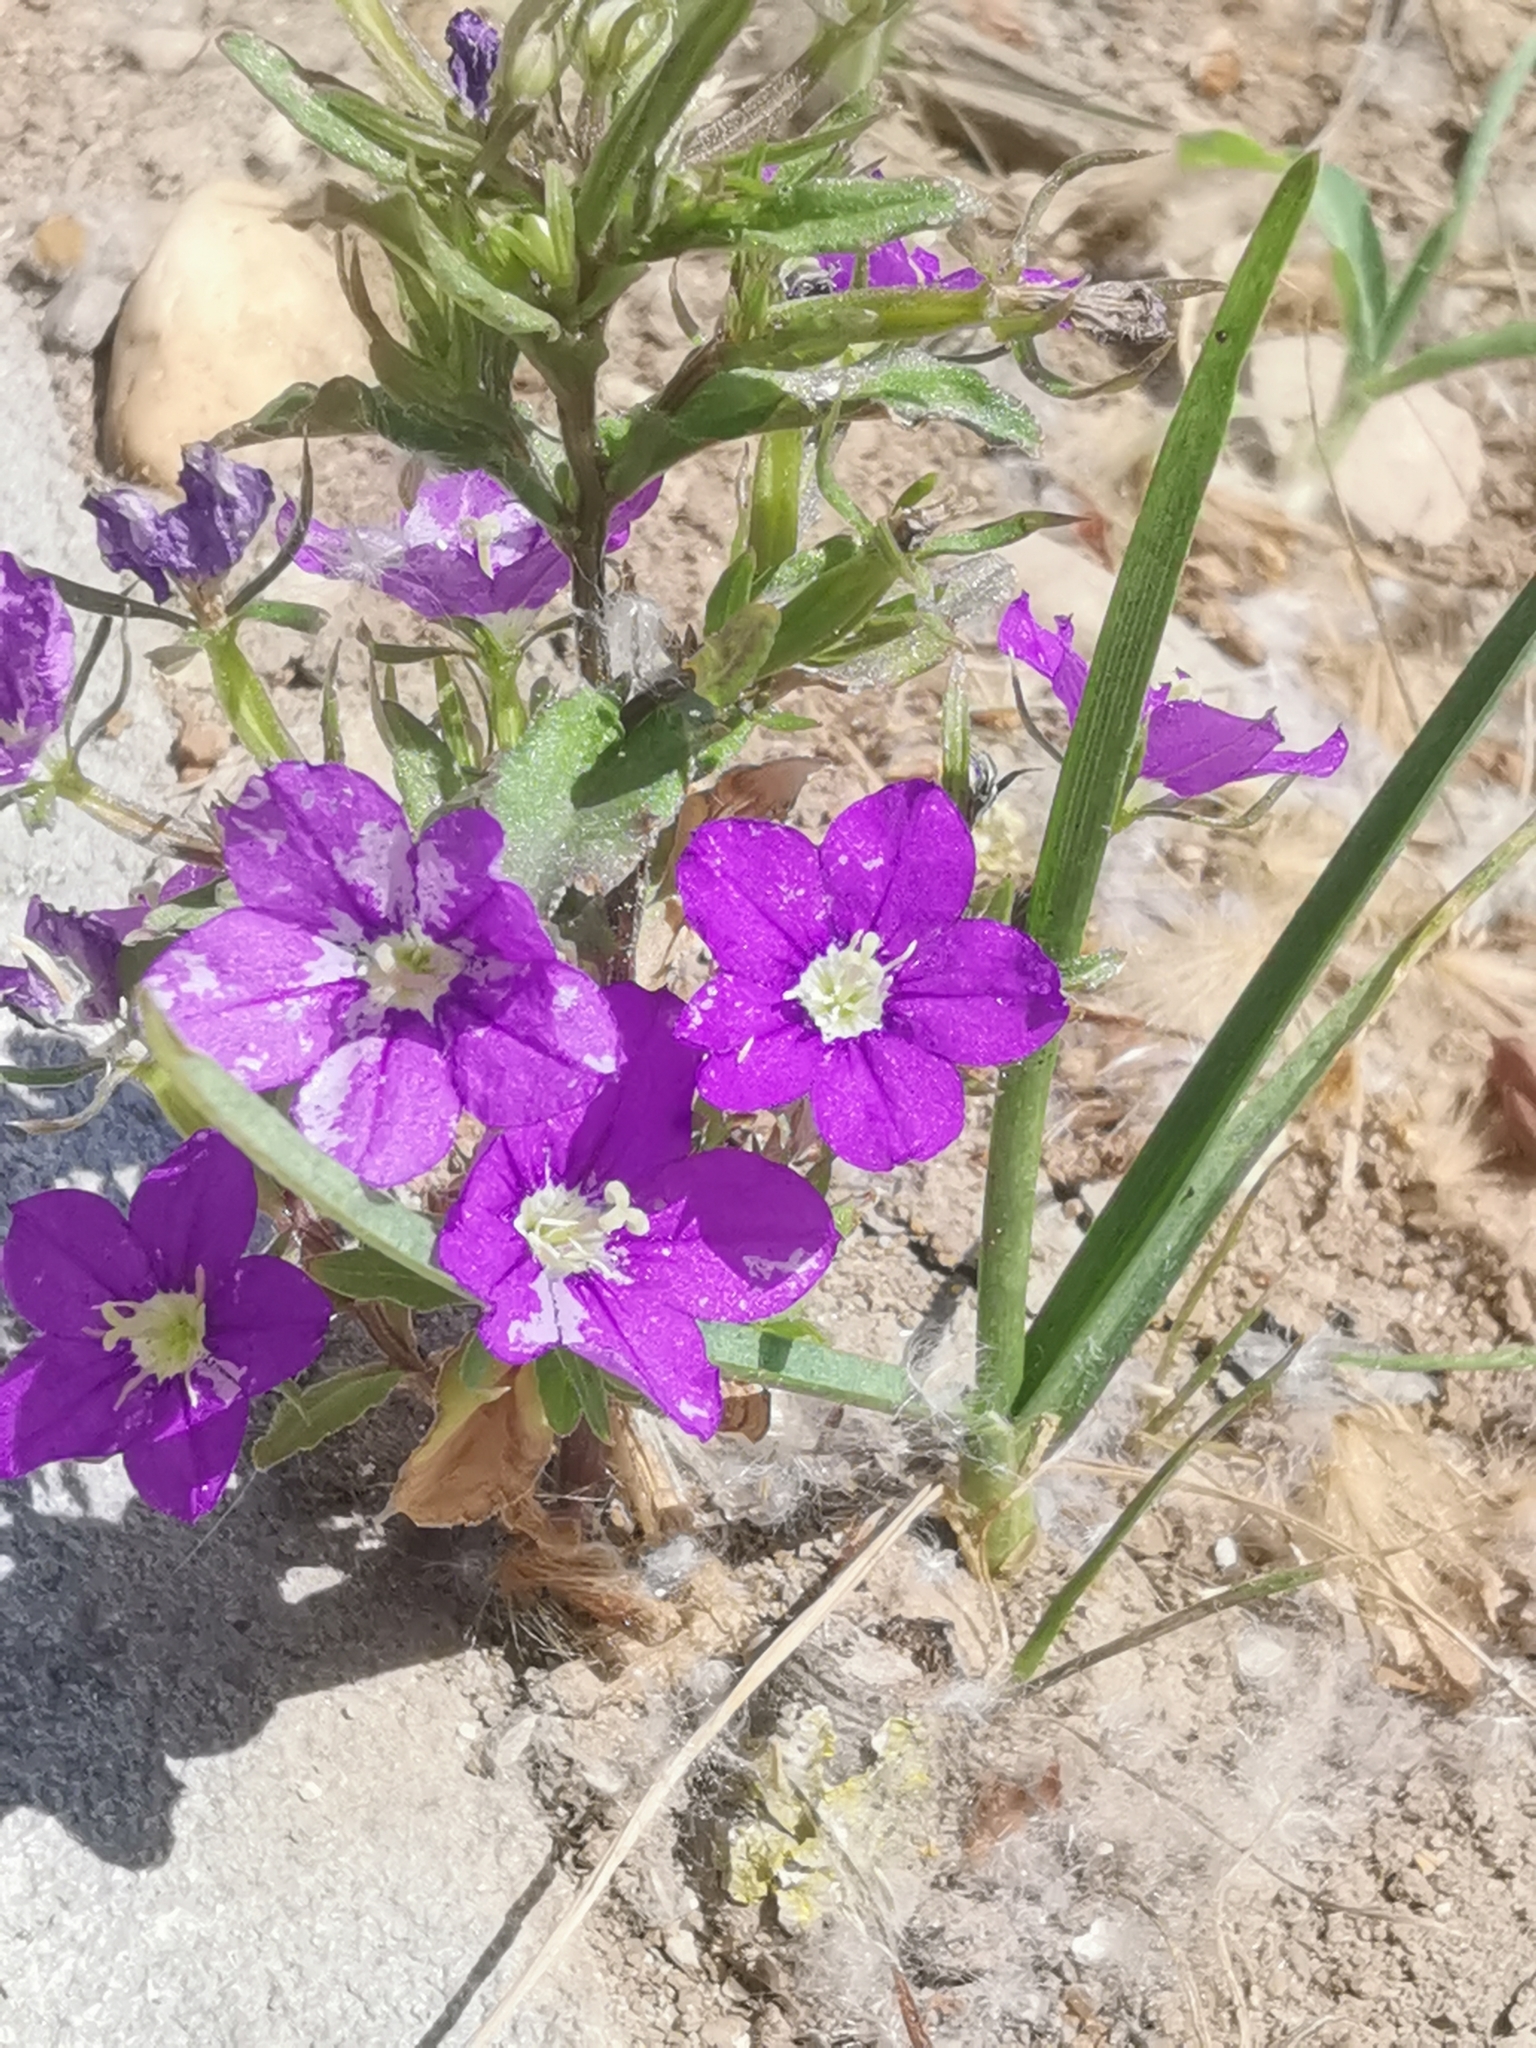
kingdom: Plantae
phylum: Tracheophyta
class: Magnoliopsida
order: Asterales
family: Campanulaceae
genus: Legousia
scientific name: Legousia speculum-veneris
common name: Large venus's-looking-glass
